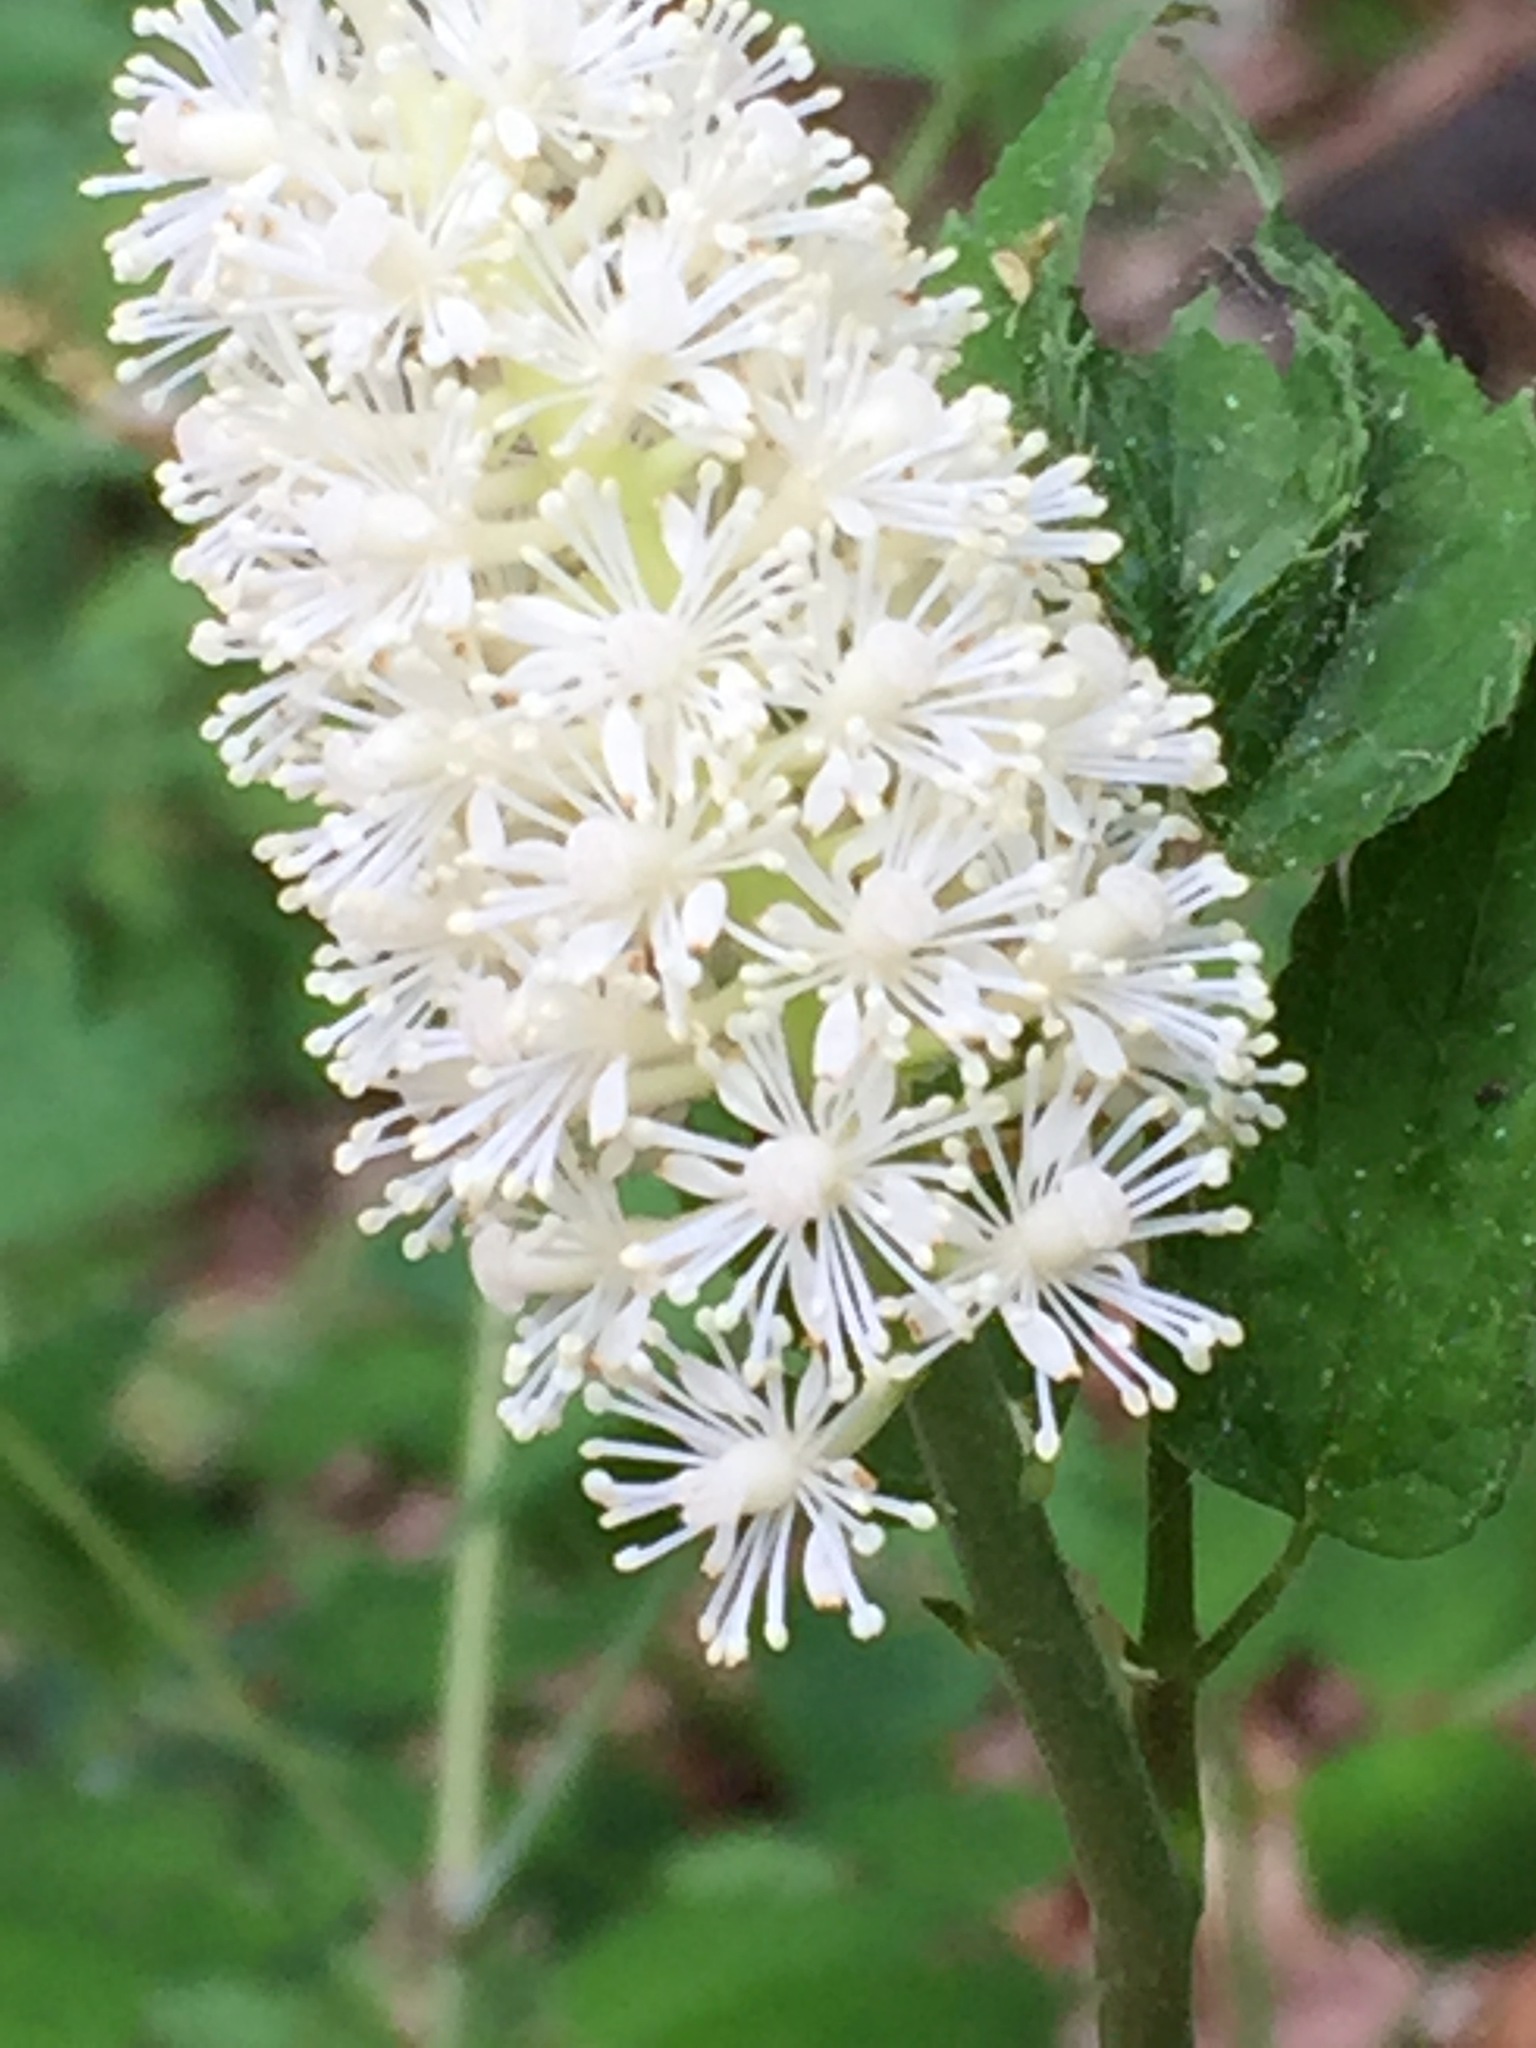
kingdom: Plantae
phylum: Tracheophyta
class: Magnoliopsida
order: Ranunculales
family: Ranunculaceae
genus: Actaea
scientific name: Actaea pachypoda
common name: Doll's-eyes
